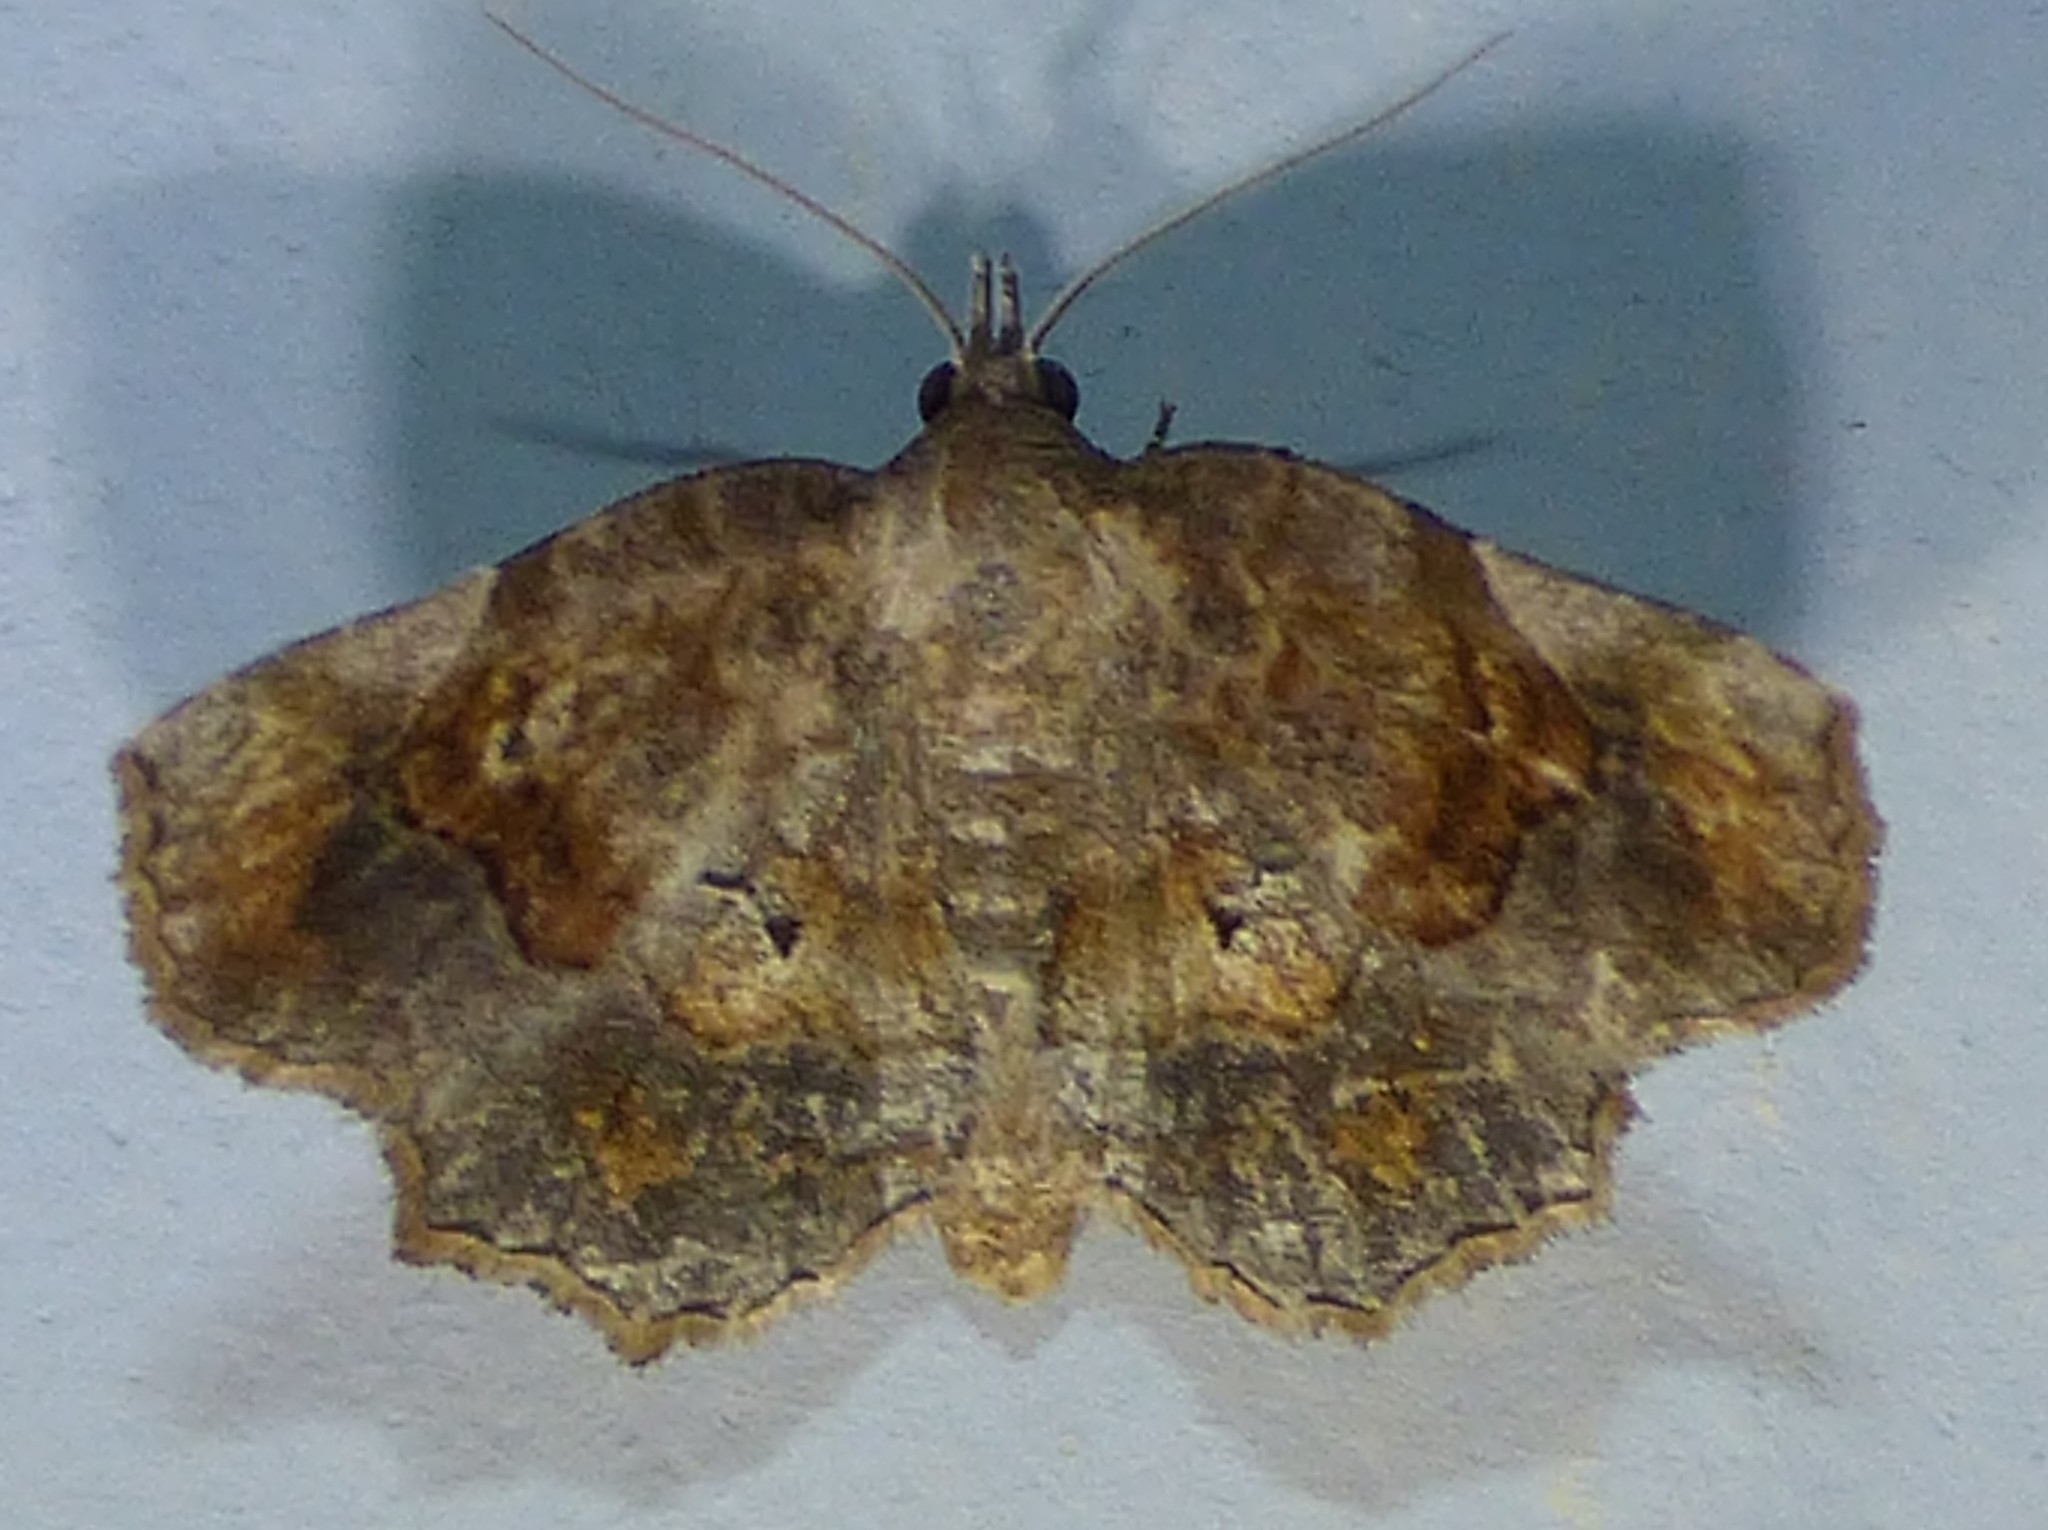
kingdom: Animalia
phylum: Arthropoda
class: Insecta
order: Lepidoptera
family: Erebidae
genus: Pangrapta
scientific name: Pangrapta decoralis
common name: Decorated owlet
